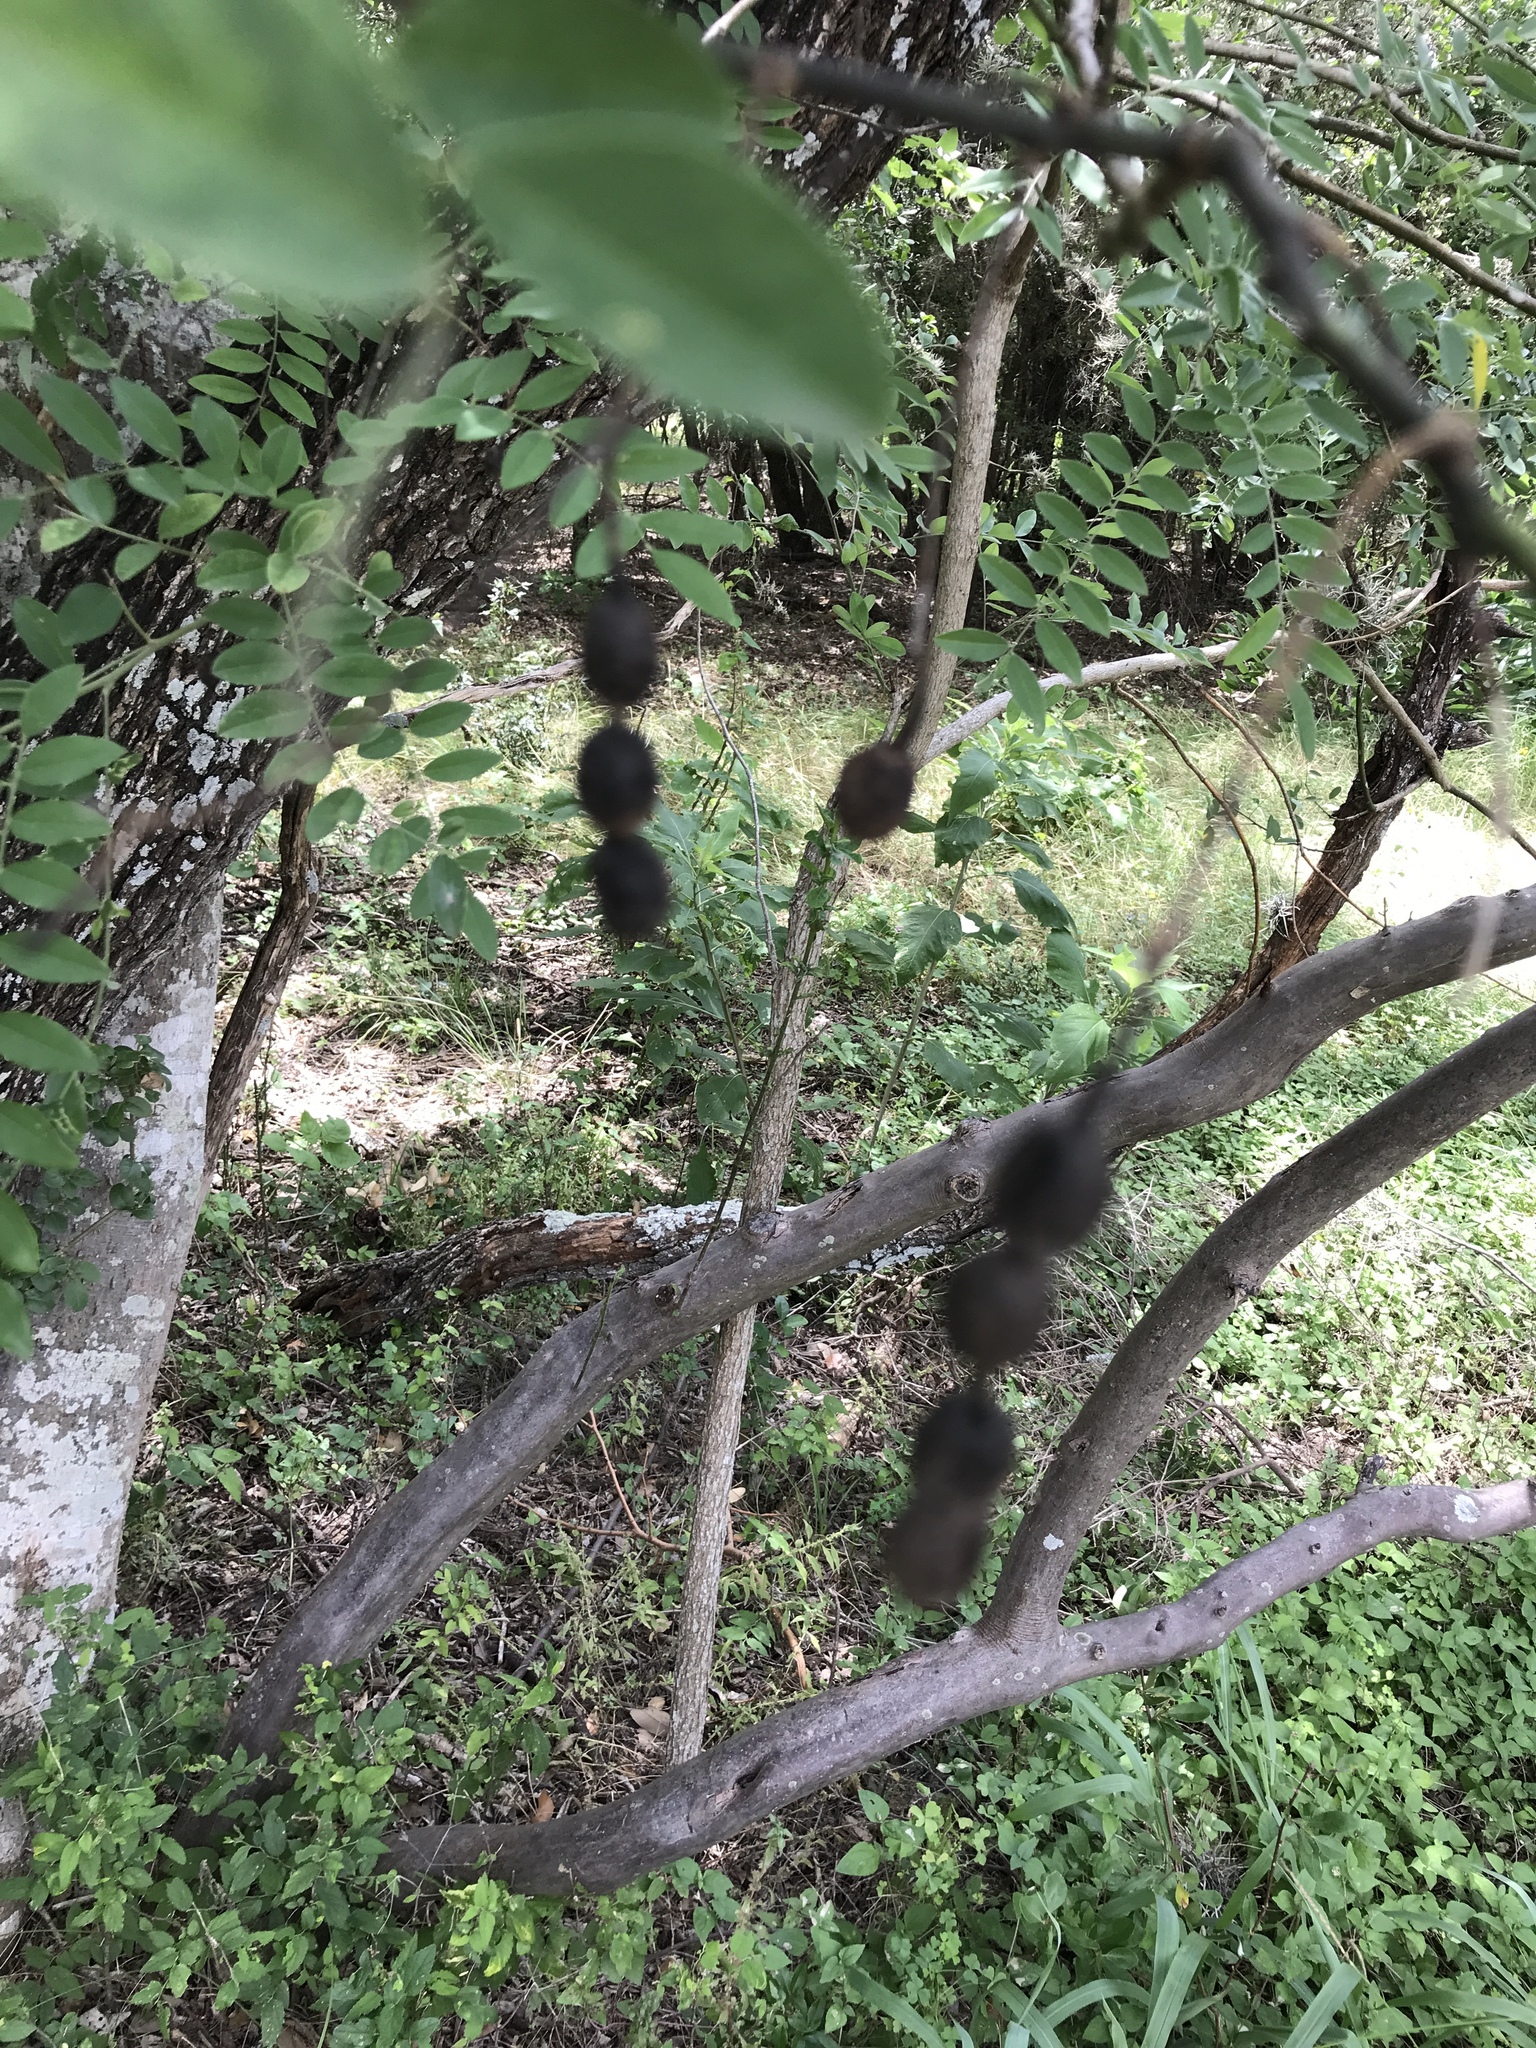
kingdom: Plantae
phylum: Tracheophyta
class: Magnoliopsida
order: Fabales
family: Fabaceae
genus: Styphnolobium
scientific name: Styphnolobium affine
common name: Texas sophora
